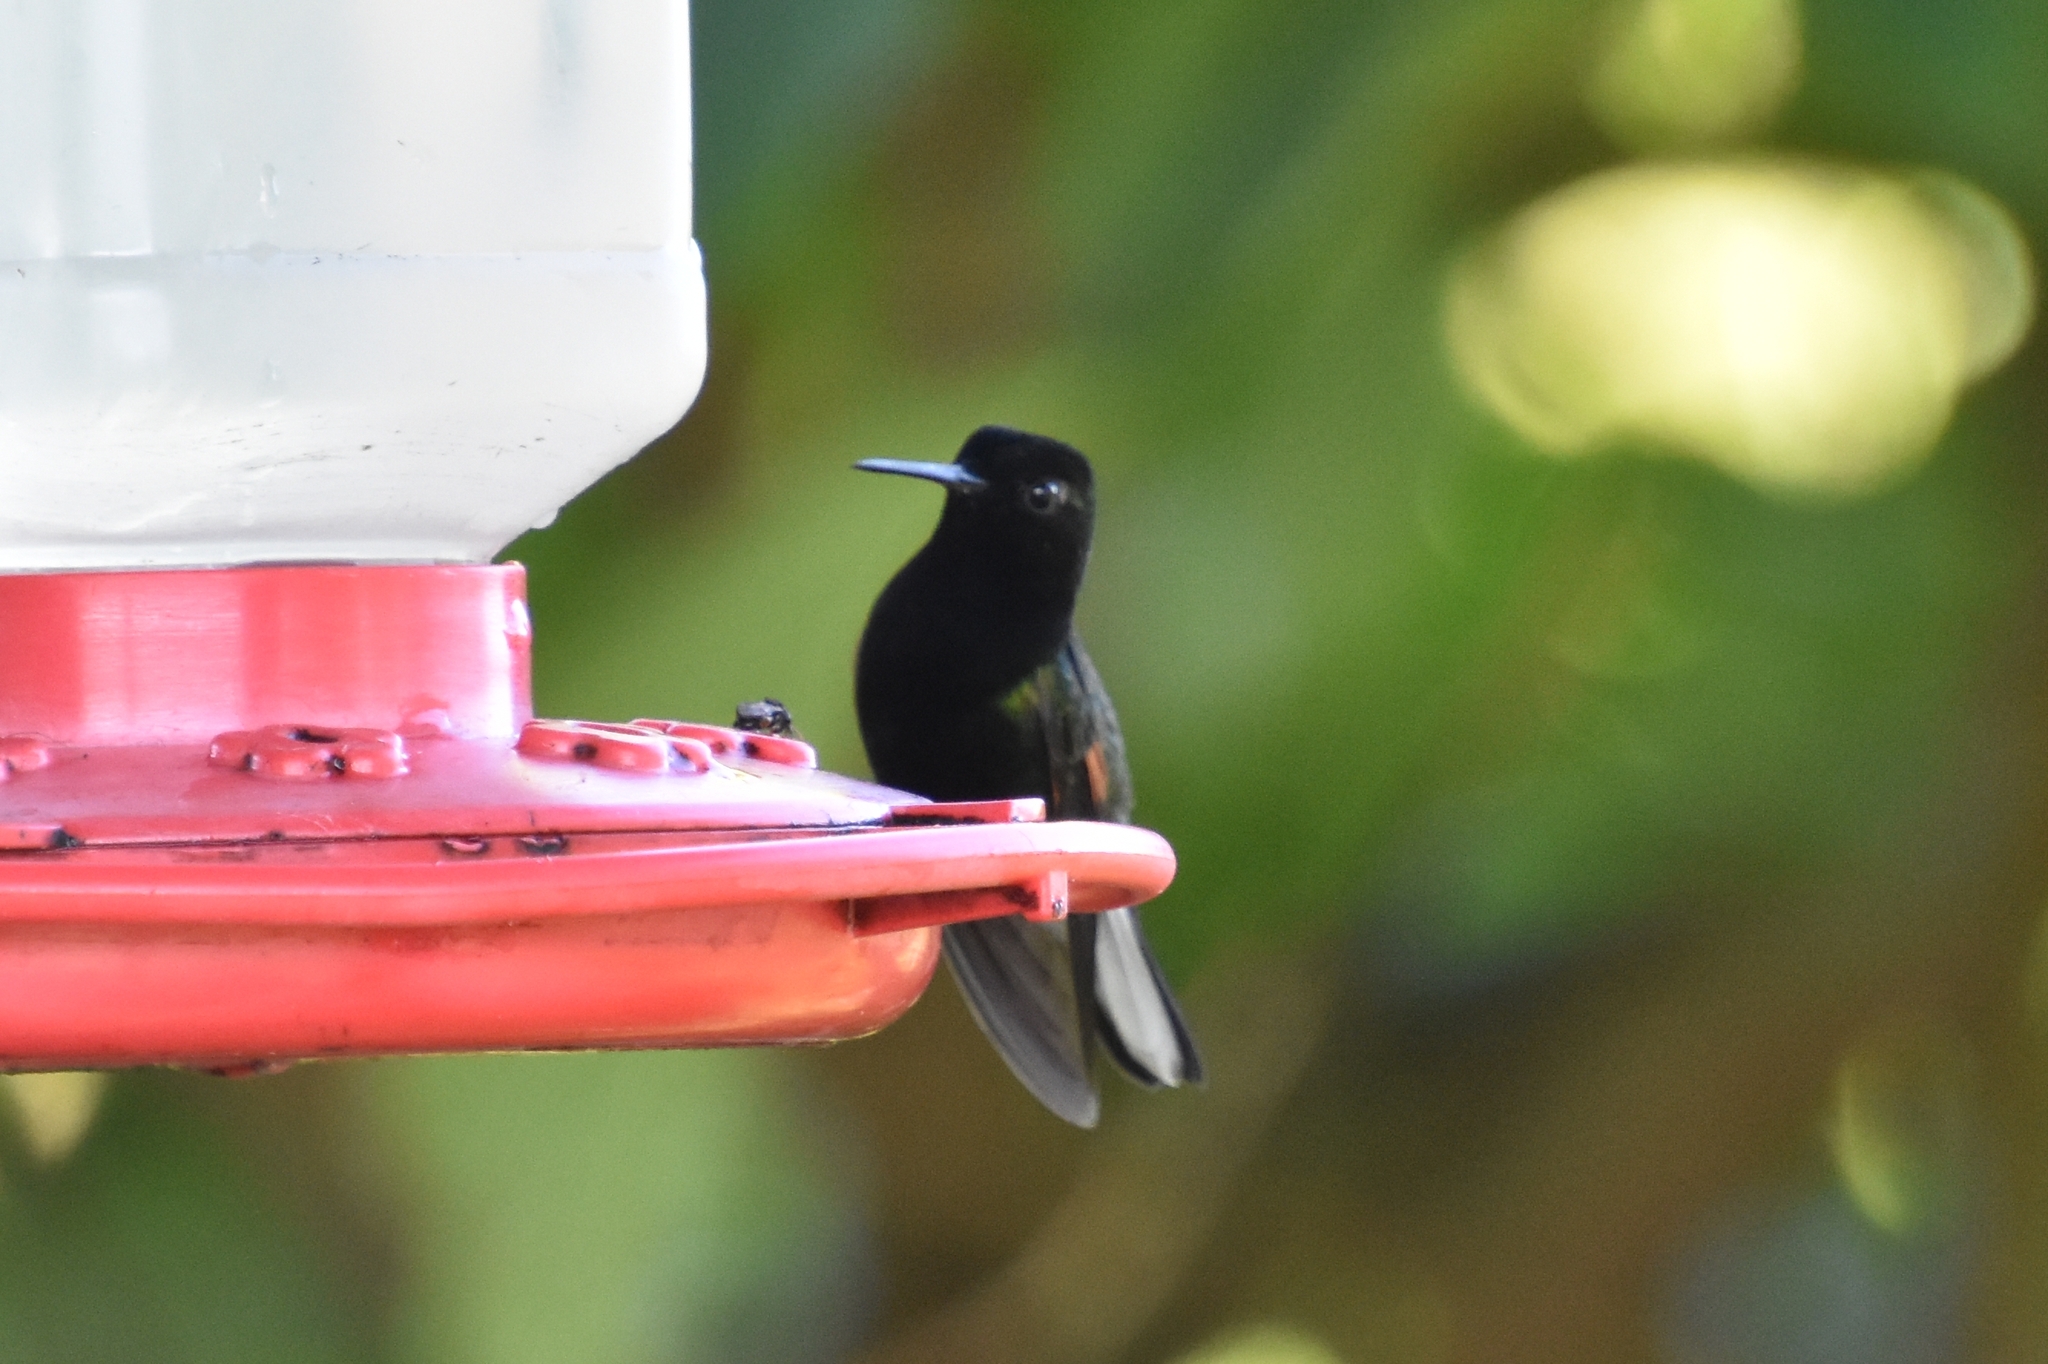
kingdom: Animalia
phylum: Chordata
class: Aves
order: Apodiformes
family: Trochilidae
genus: Eupherusa
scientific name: Eupherusa nigriventris
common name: Black-bellied hummingbird
